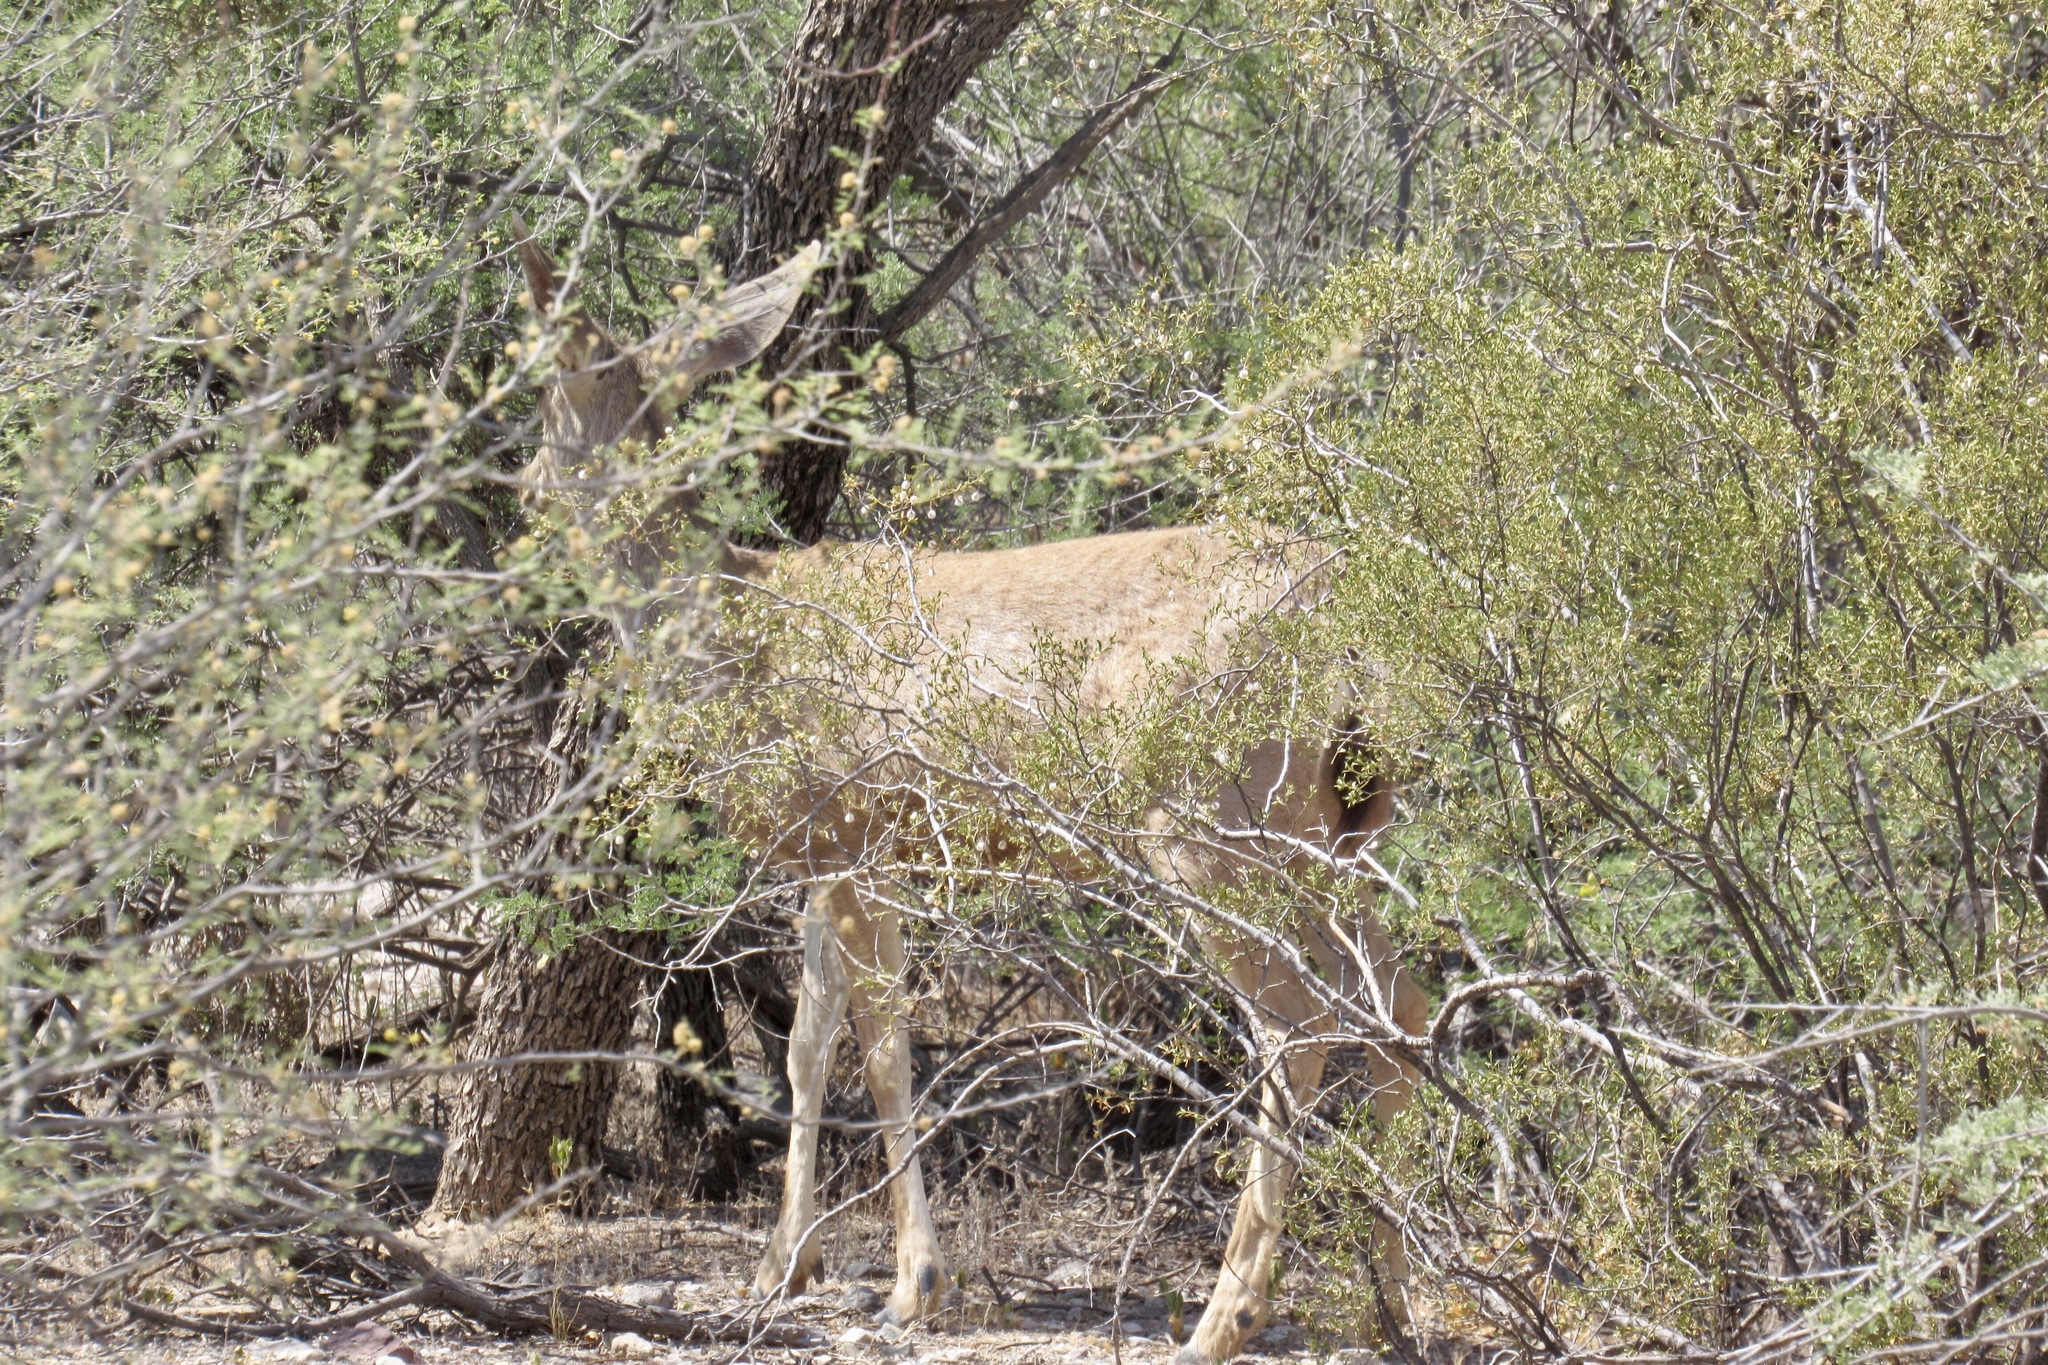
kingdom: Animalia
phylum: Chordata
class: Mammalia
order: Artiodactyla
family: Cervidae
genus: Odocoileus
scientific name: Odocoileus hemionus
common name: Mule deer
